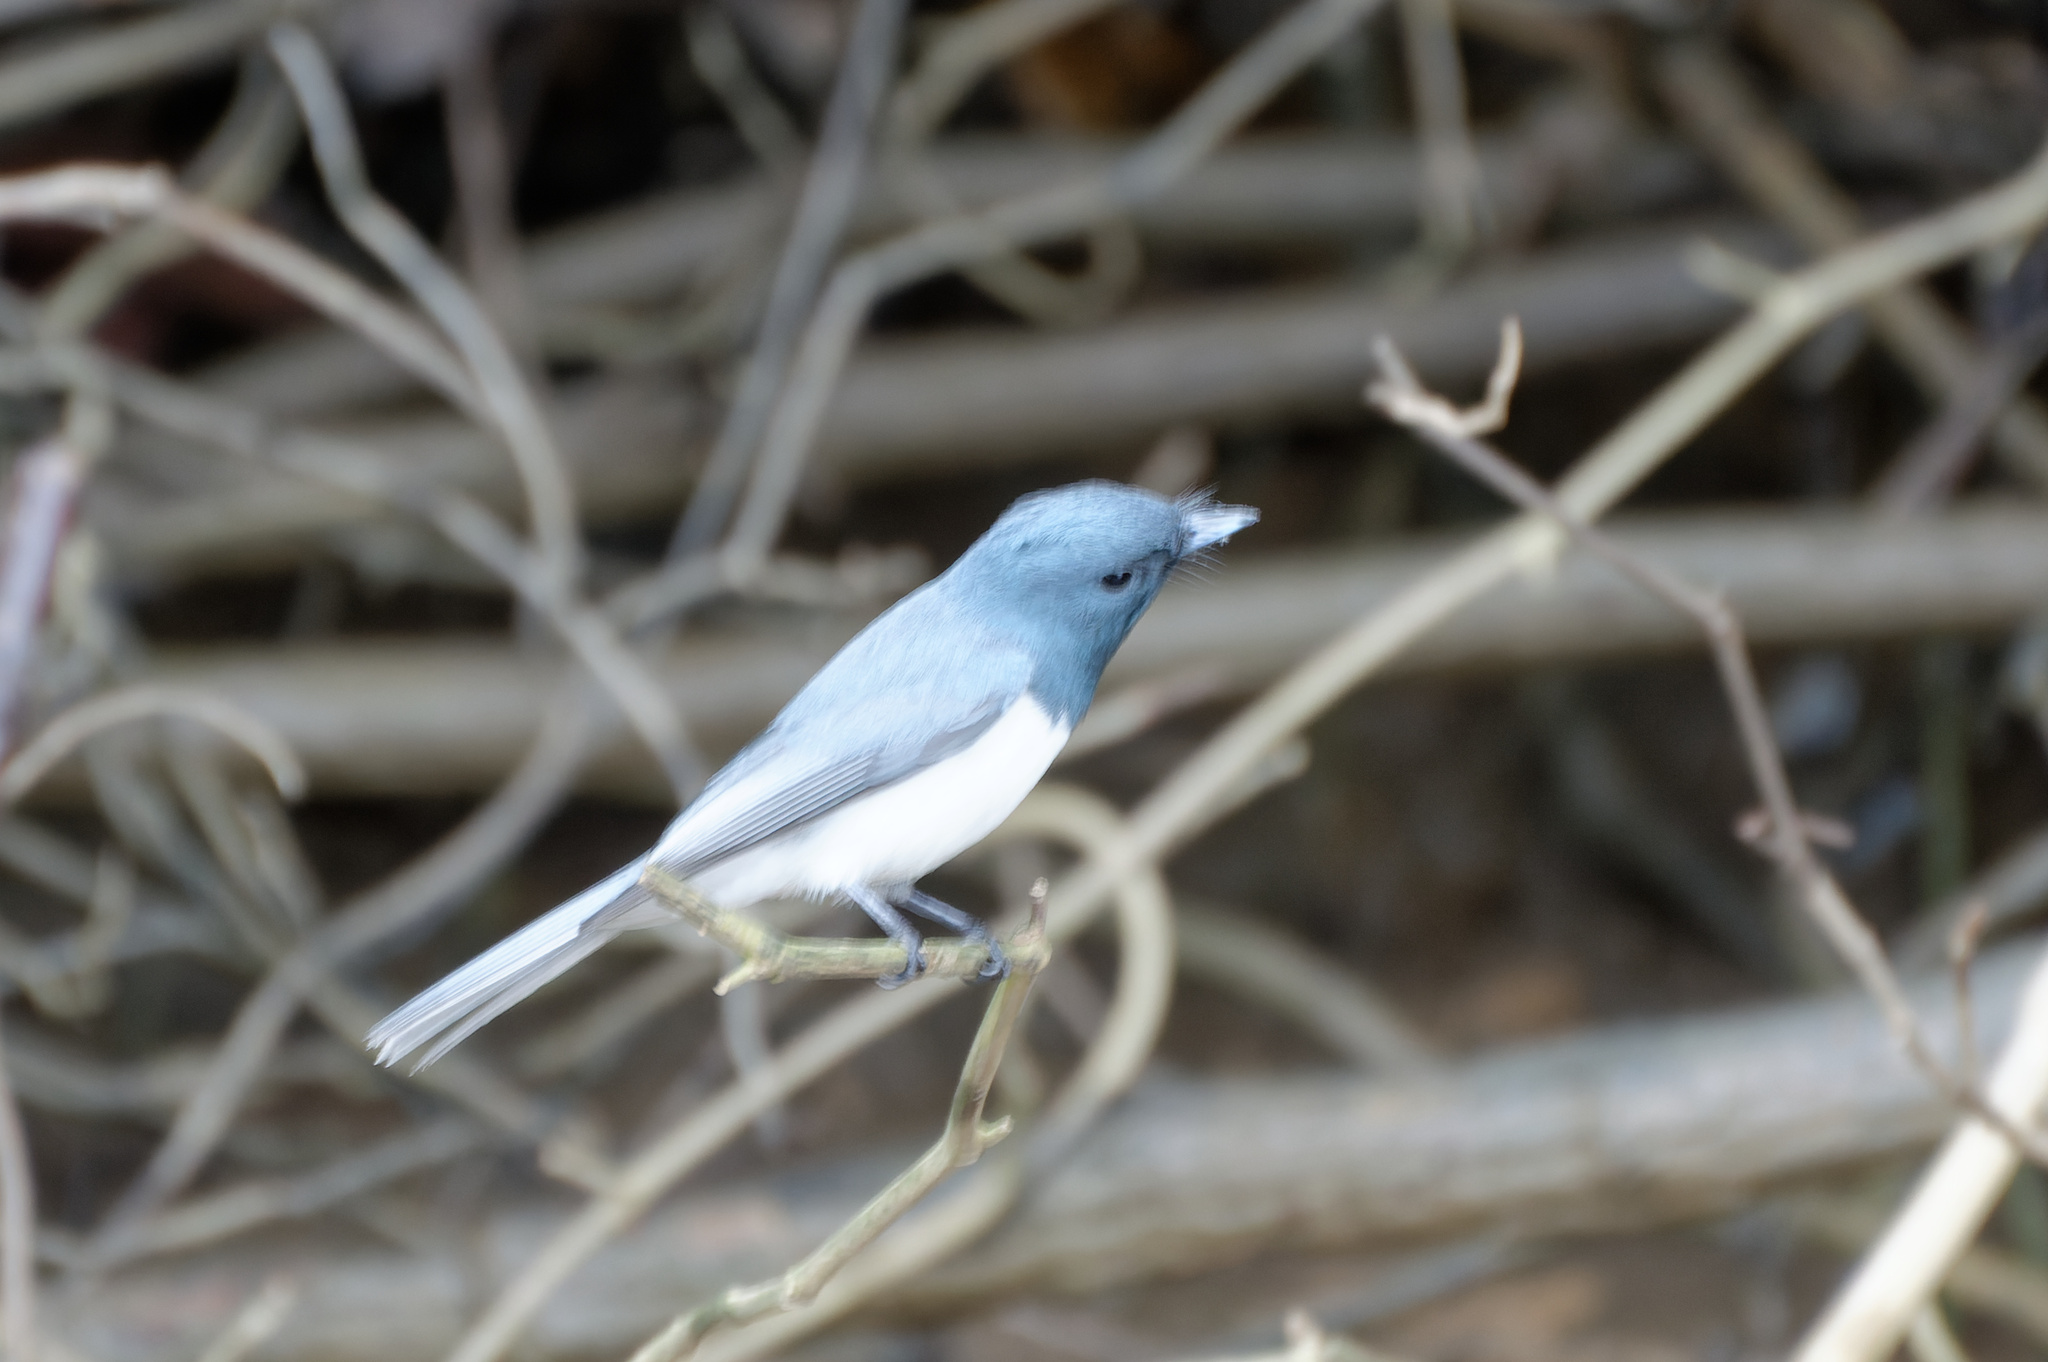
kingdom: Animalia
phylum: Chordata
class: Aves
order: Passeriformes
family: Monarchidae
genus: Myiagra
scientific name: Myiagra rubecula
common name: Leaden flycatcher
